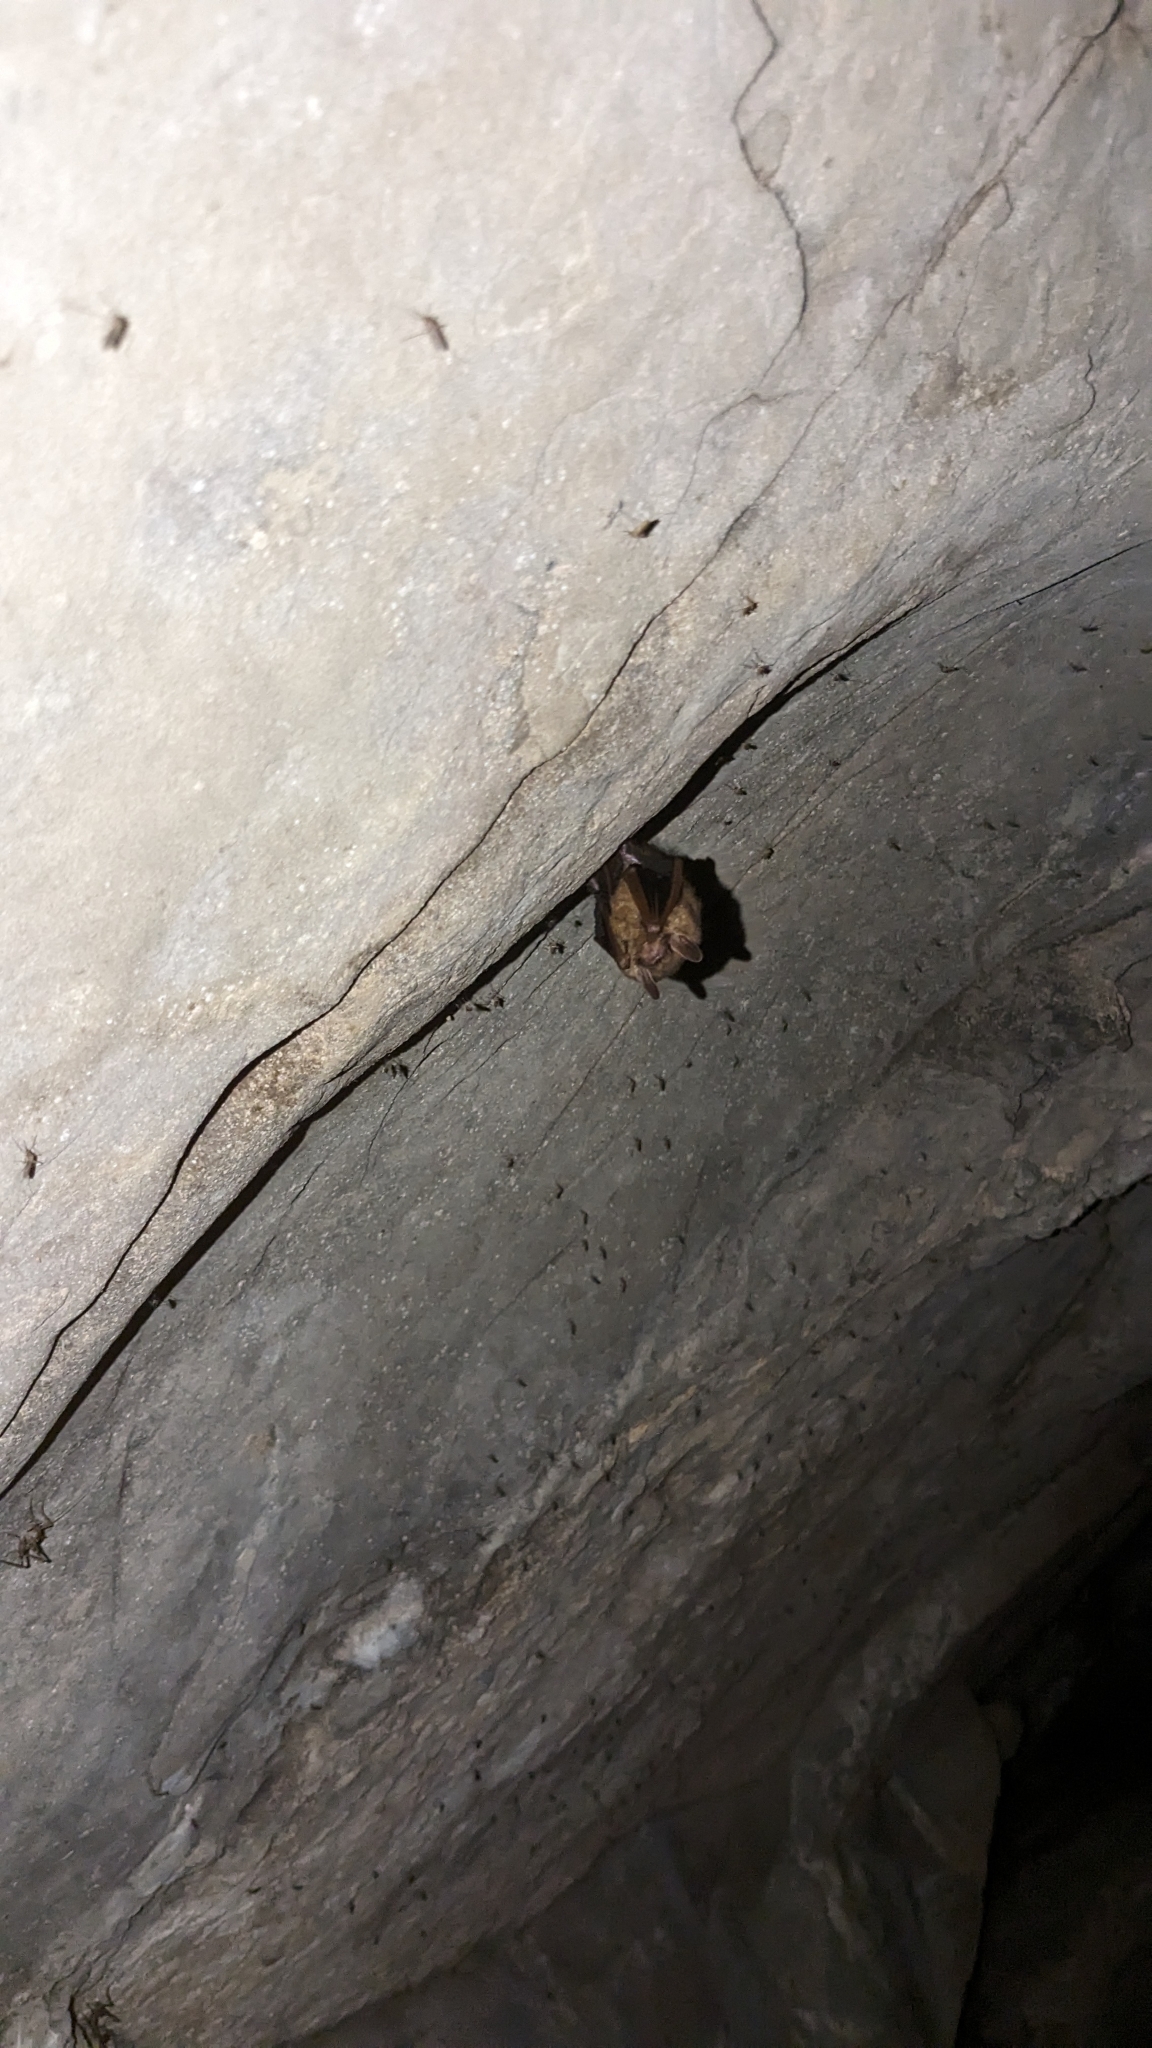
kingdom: Animalia
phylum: Chordata
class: Mammalia
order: Chiroptera
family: Vespertilionidae
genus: Perimyotis
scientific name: Perimyotis subflavus
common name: Eastern pipistrelle
